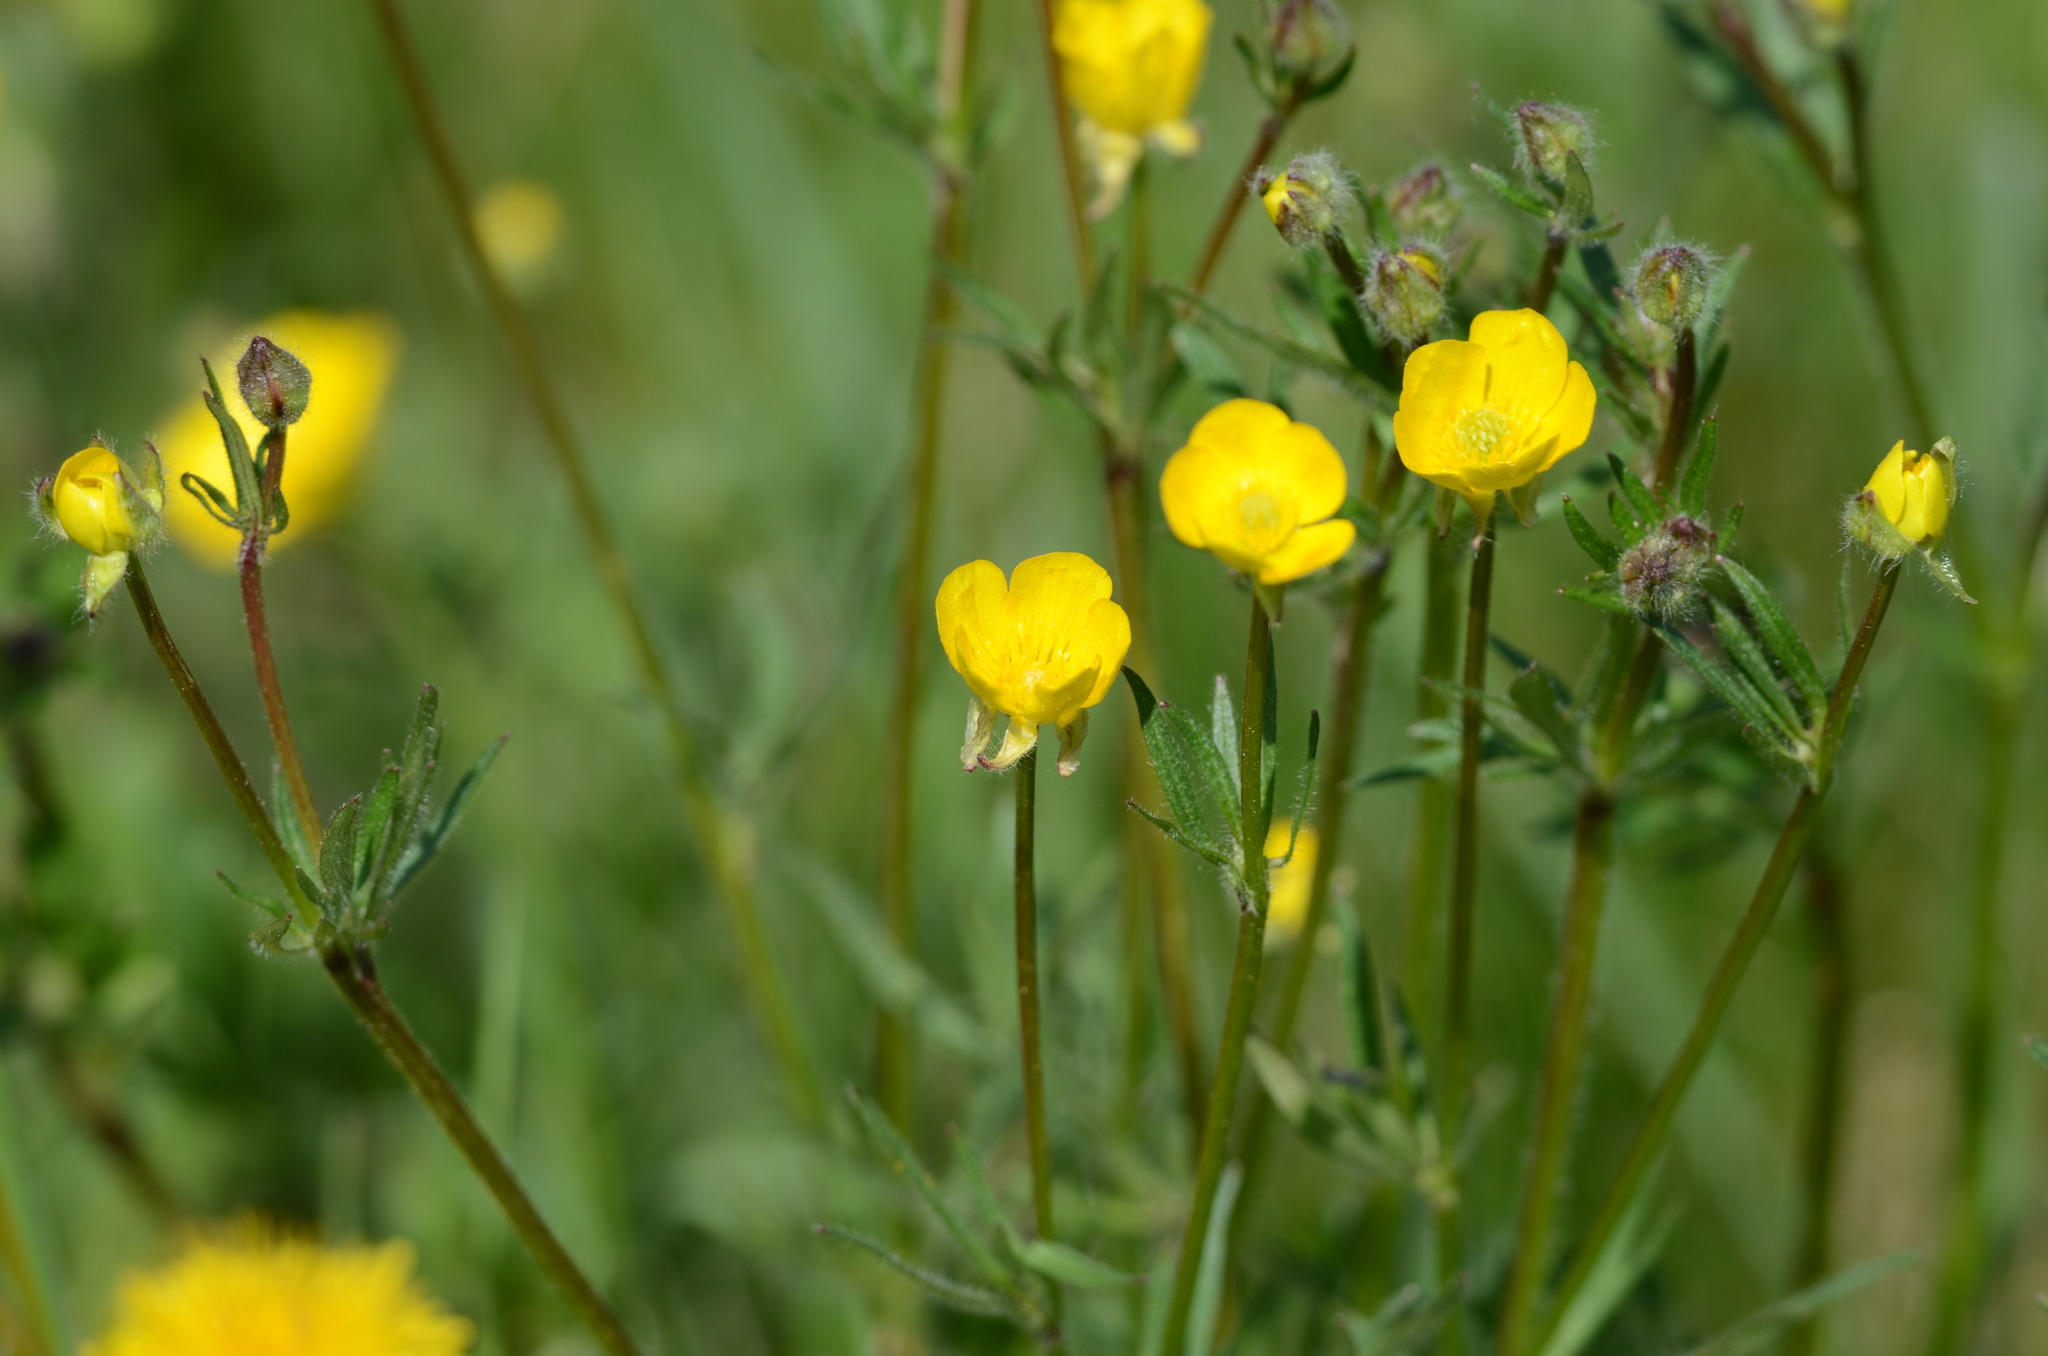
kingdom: Plantae
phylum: Tracheophyta
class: Magnoliopsida
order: Ranunculales
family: Ranunculaceae
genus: Ranunculus
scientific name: Ranunculus bulbosus
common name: Bulbous buttercup
